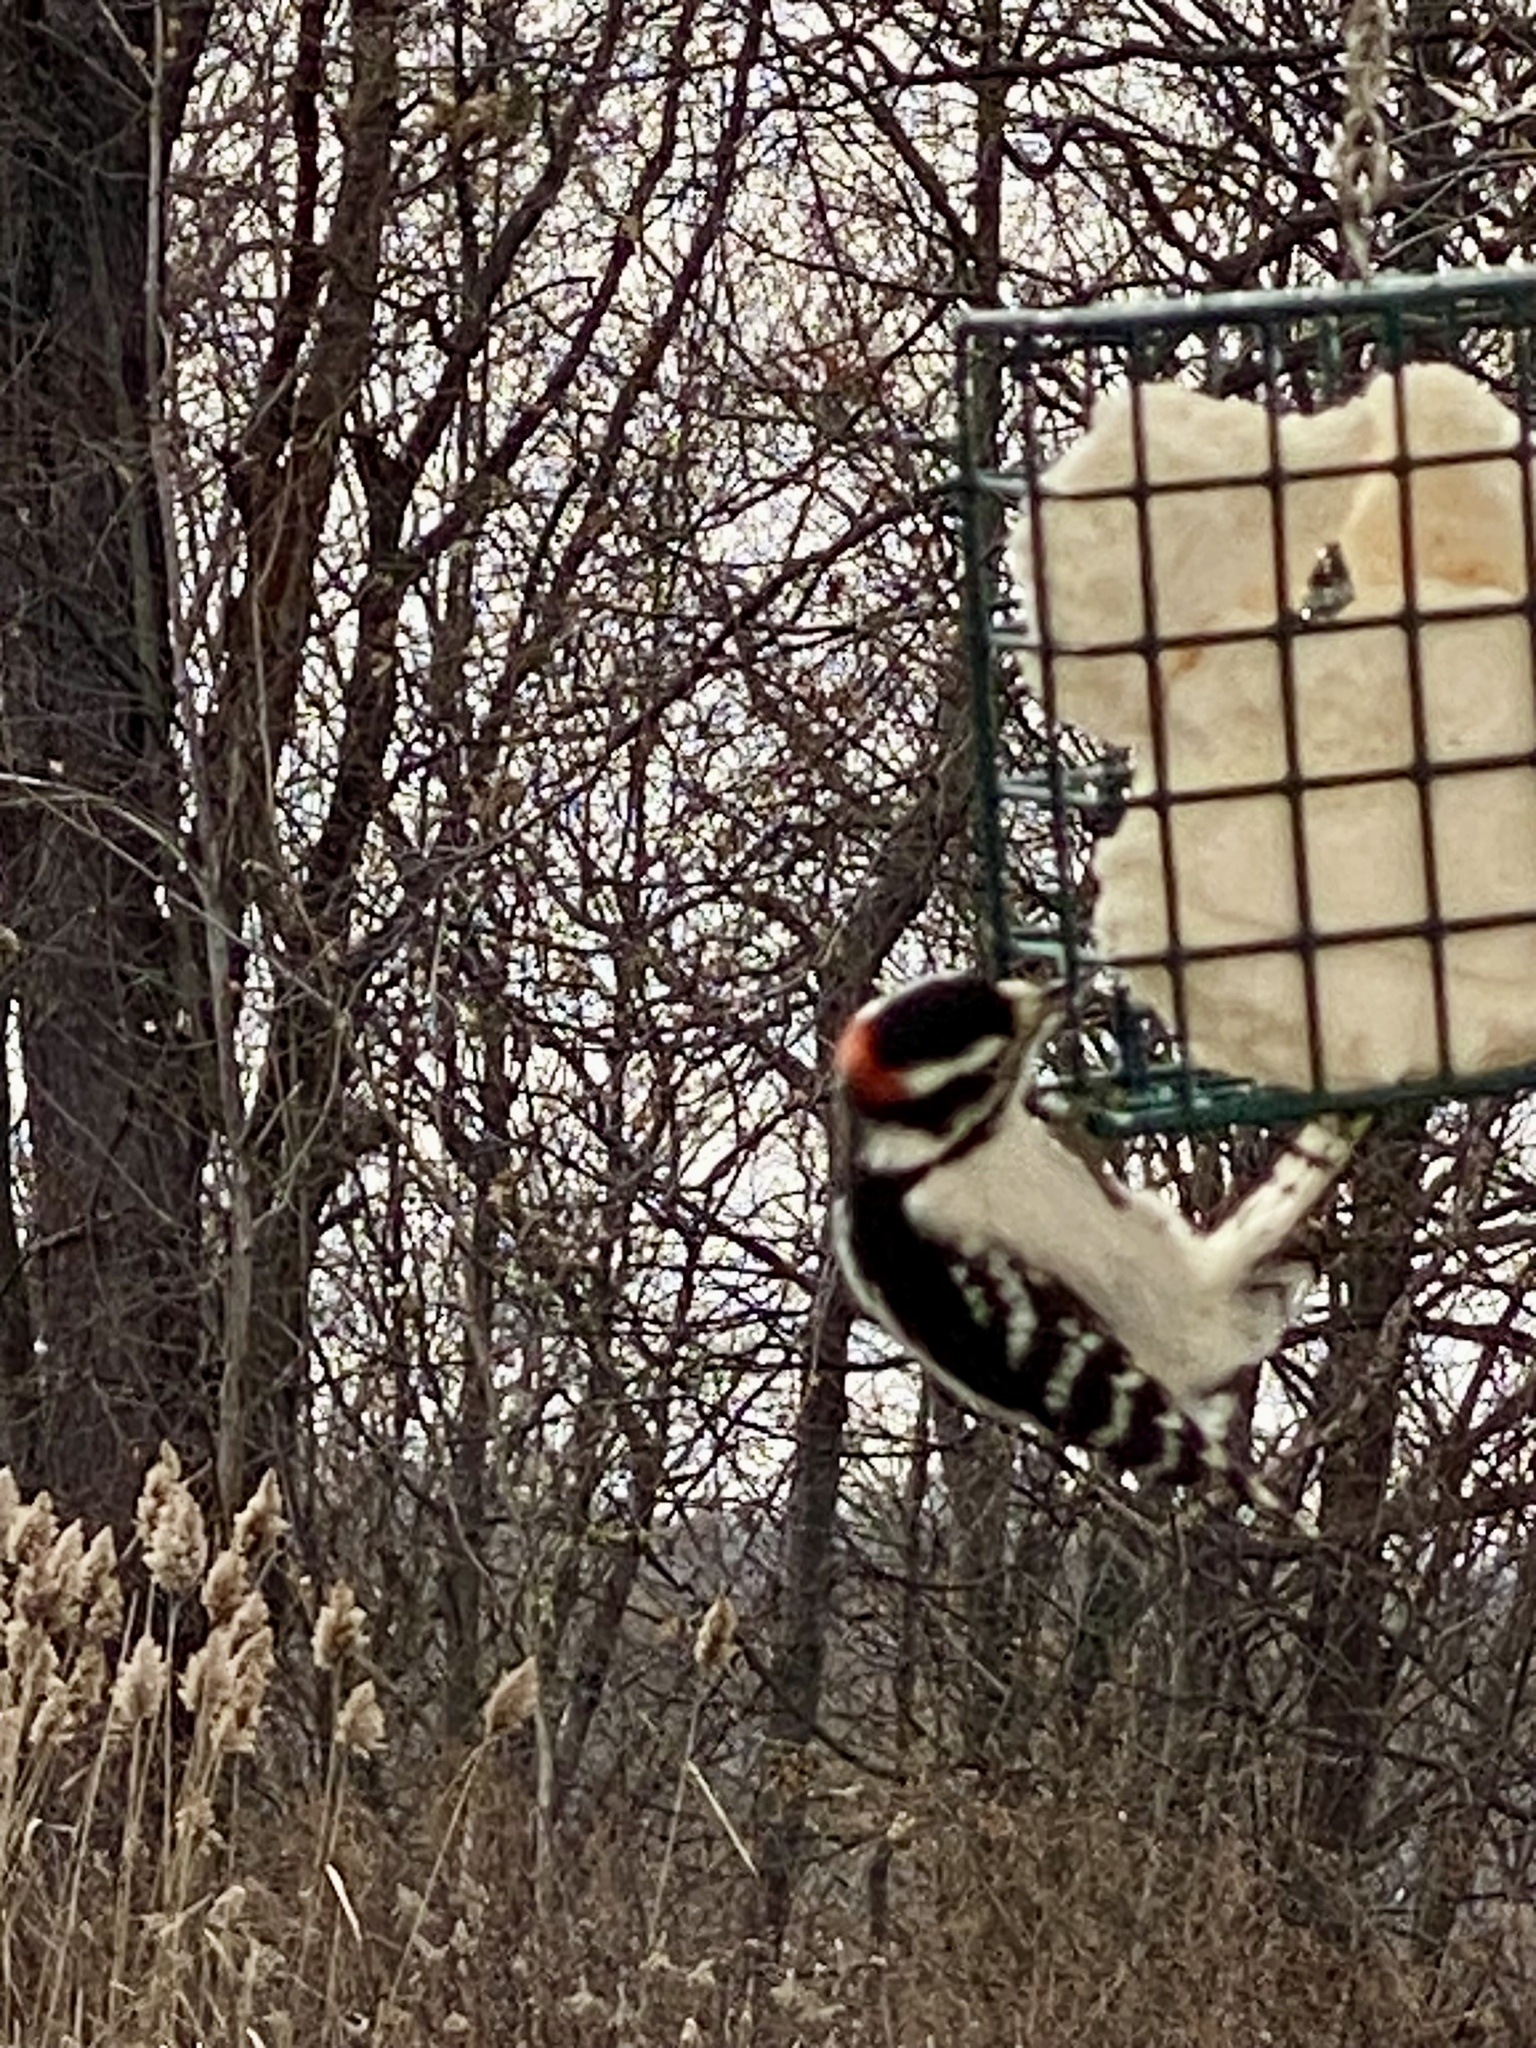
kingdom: Animalia
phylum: Chordata
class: Aves
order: Piciformes
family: Picidae
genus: Dryobates
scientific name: Dryobates pubescens
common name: Downy woodpecker
